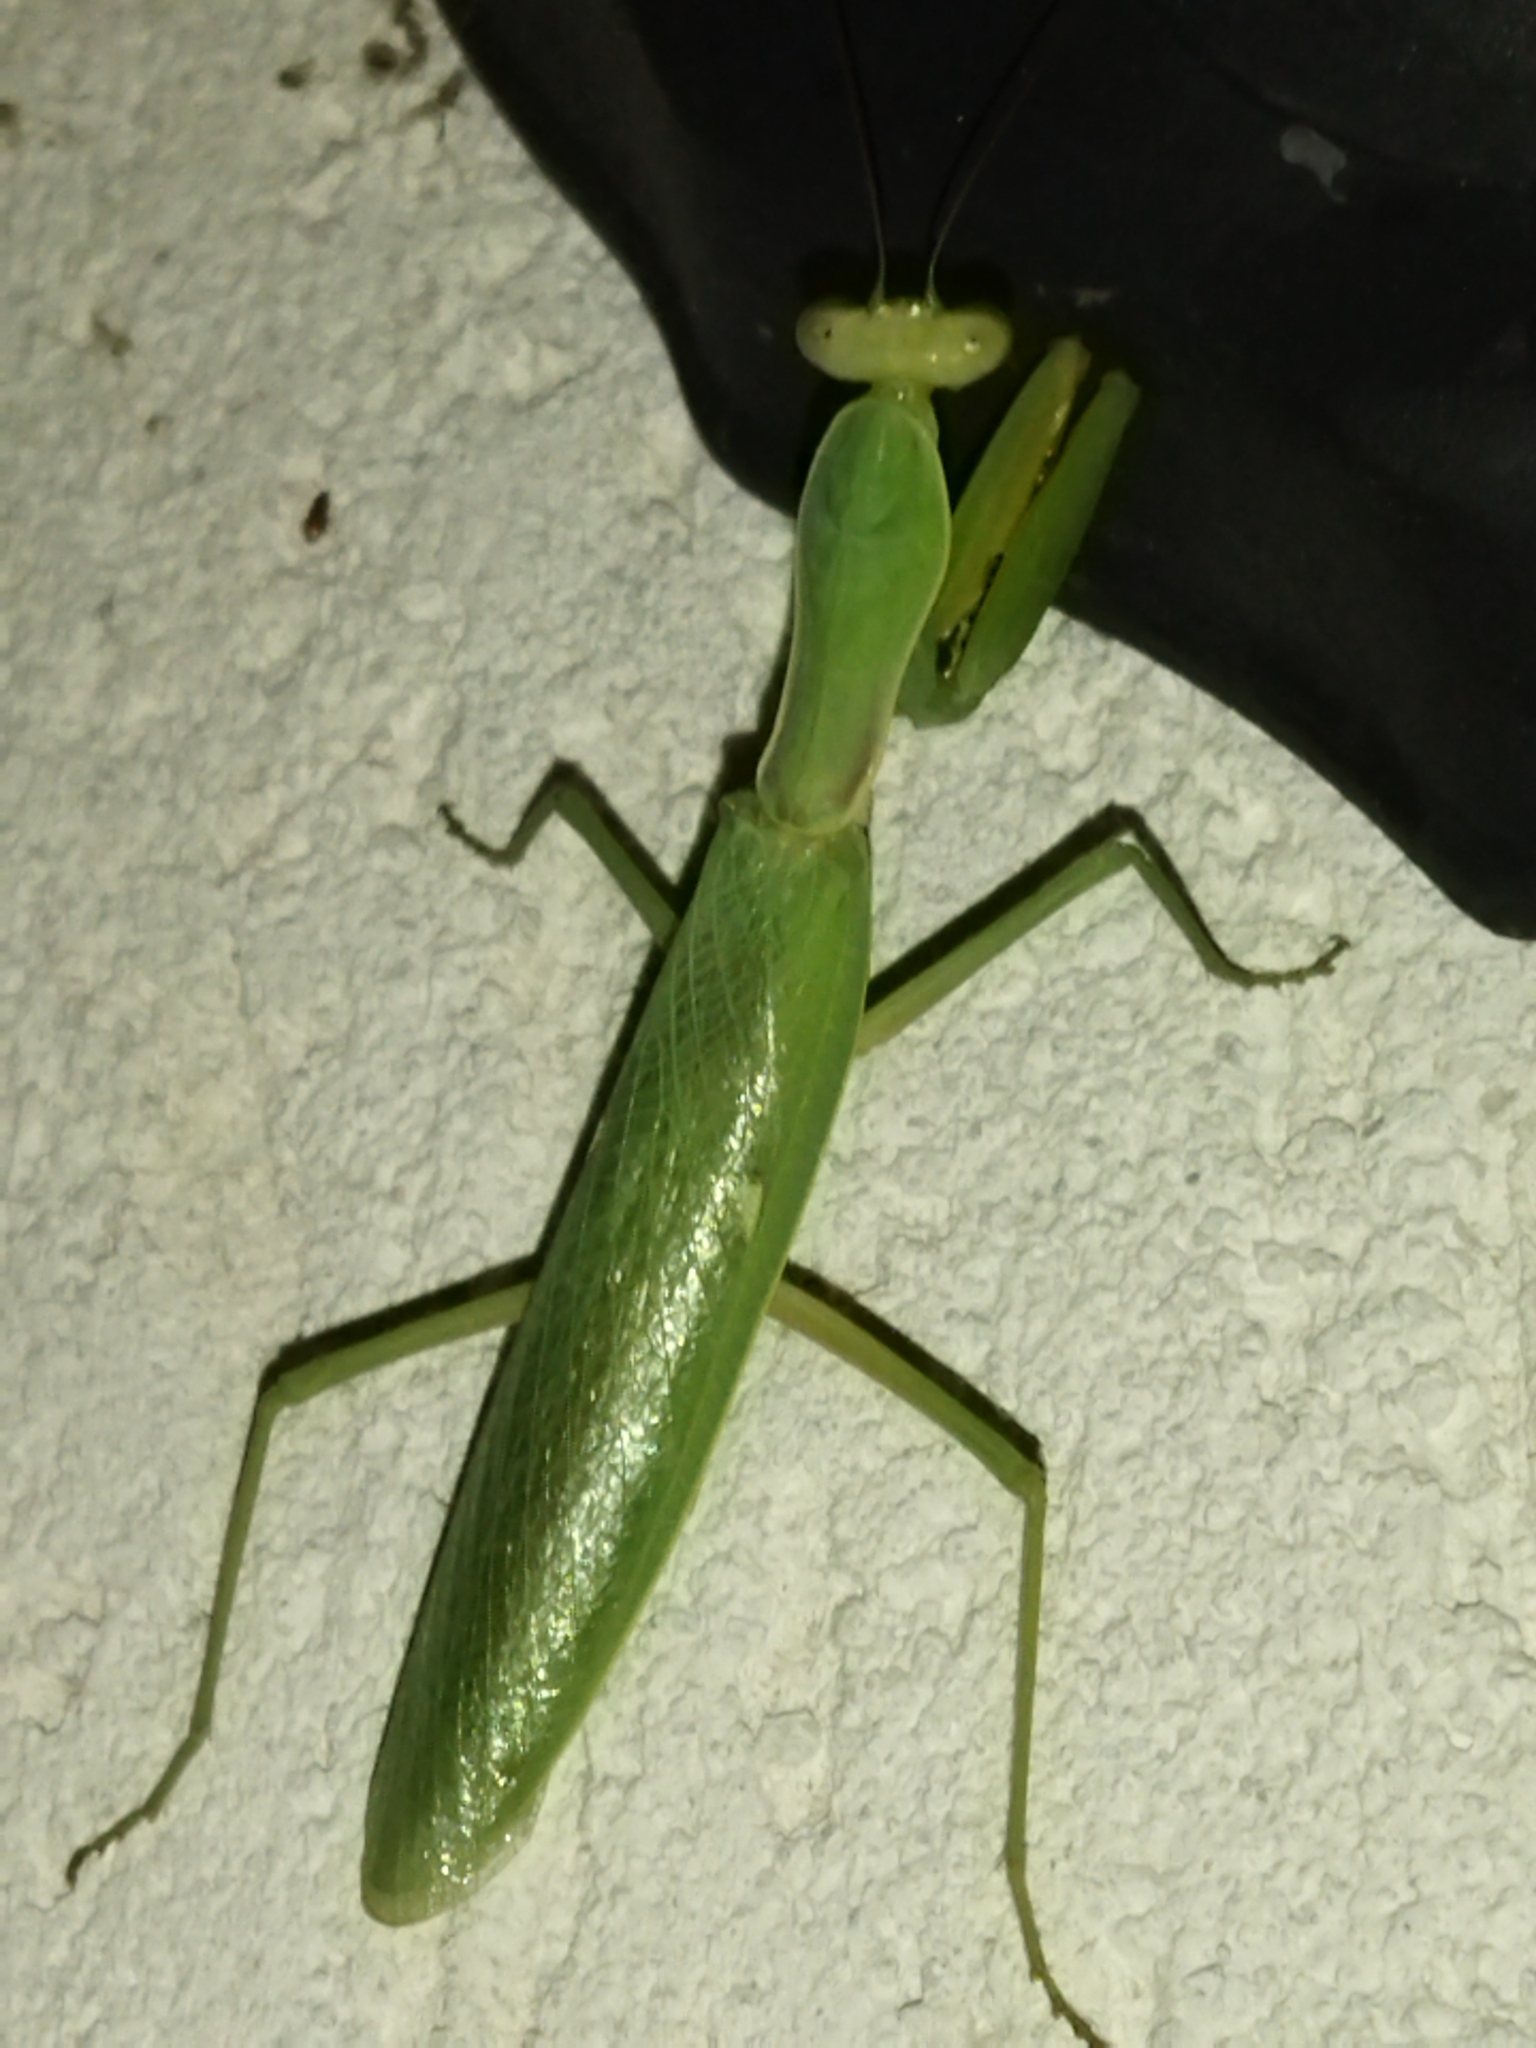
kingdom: Animalia
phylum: Arthropoda
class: Insecta
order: Mantodea
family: Mantidae
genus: Hierodula
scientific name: Hierodula transcaucasica
